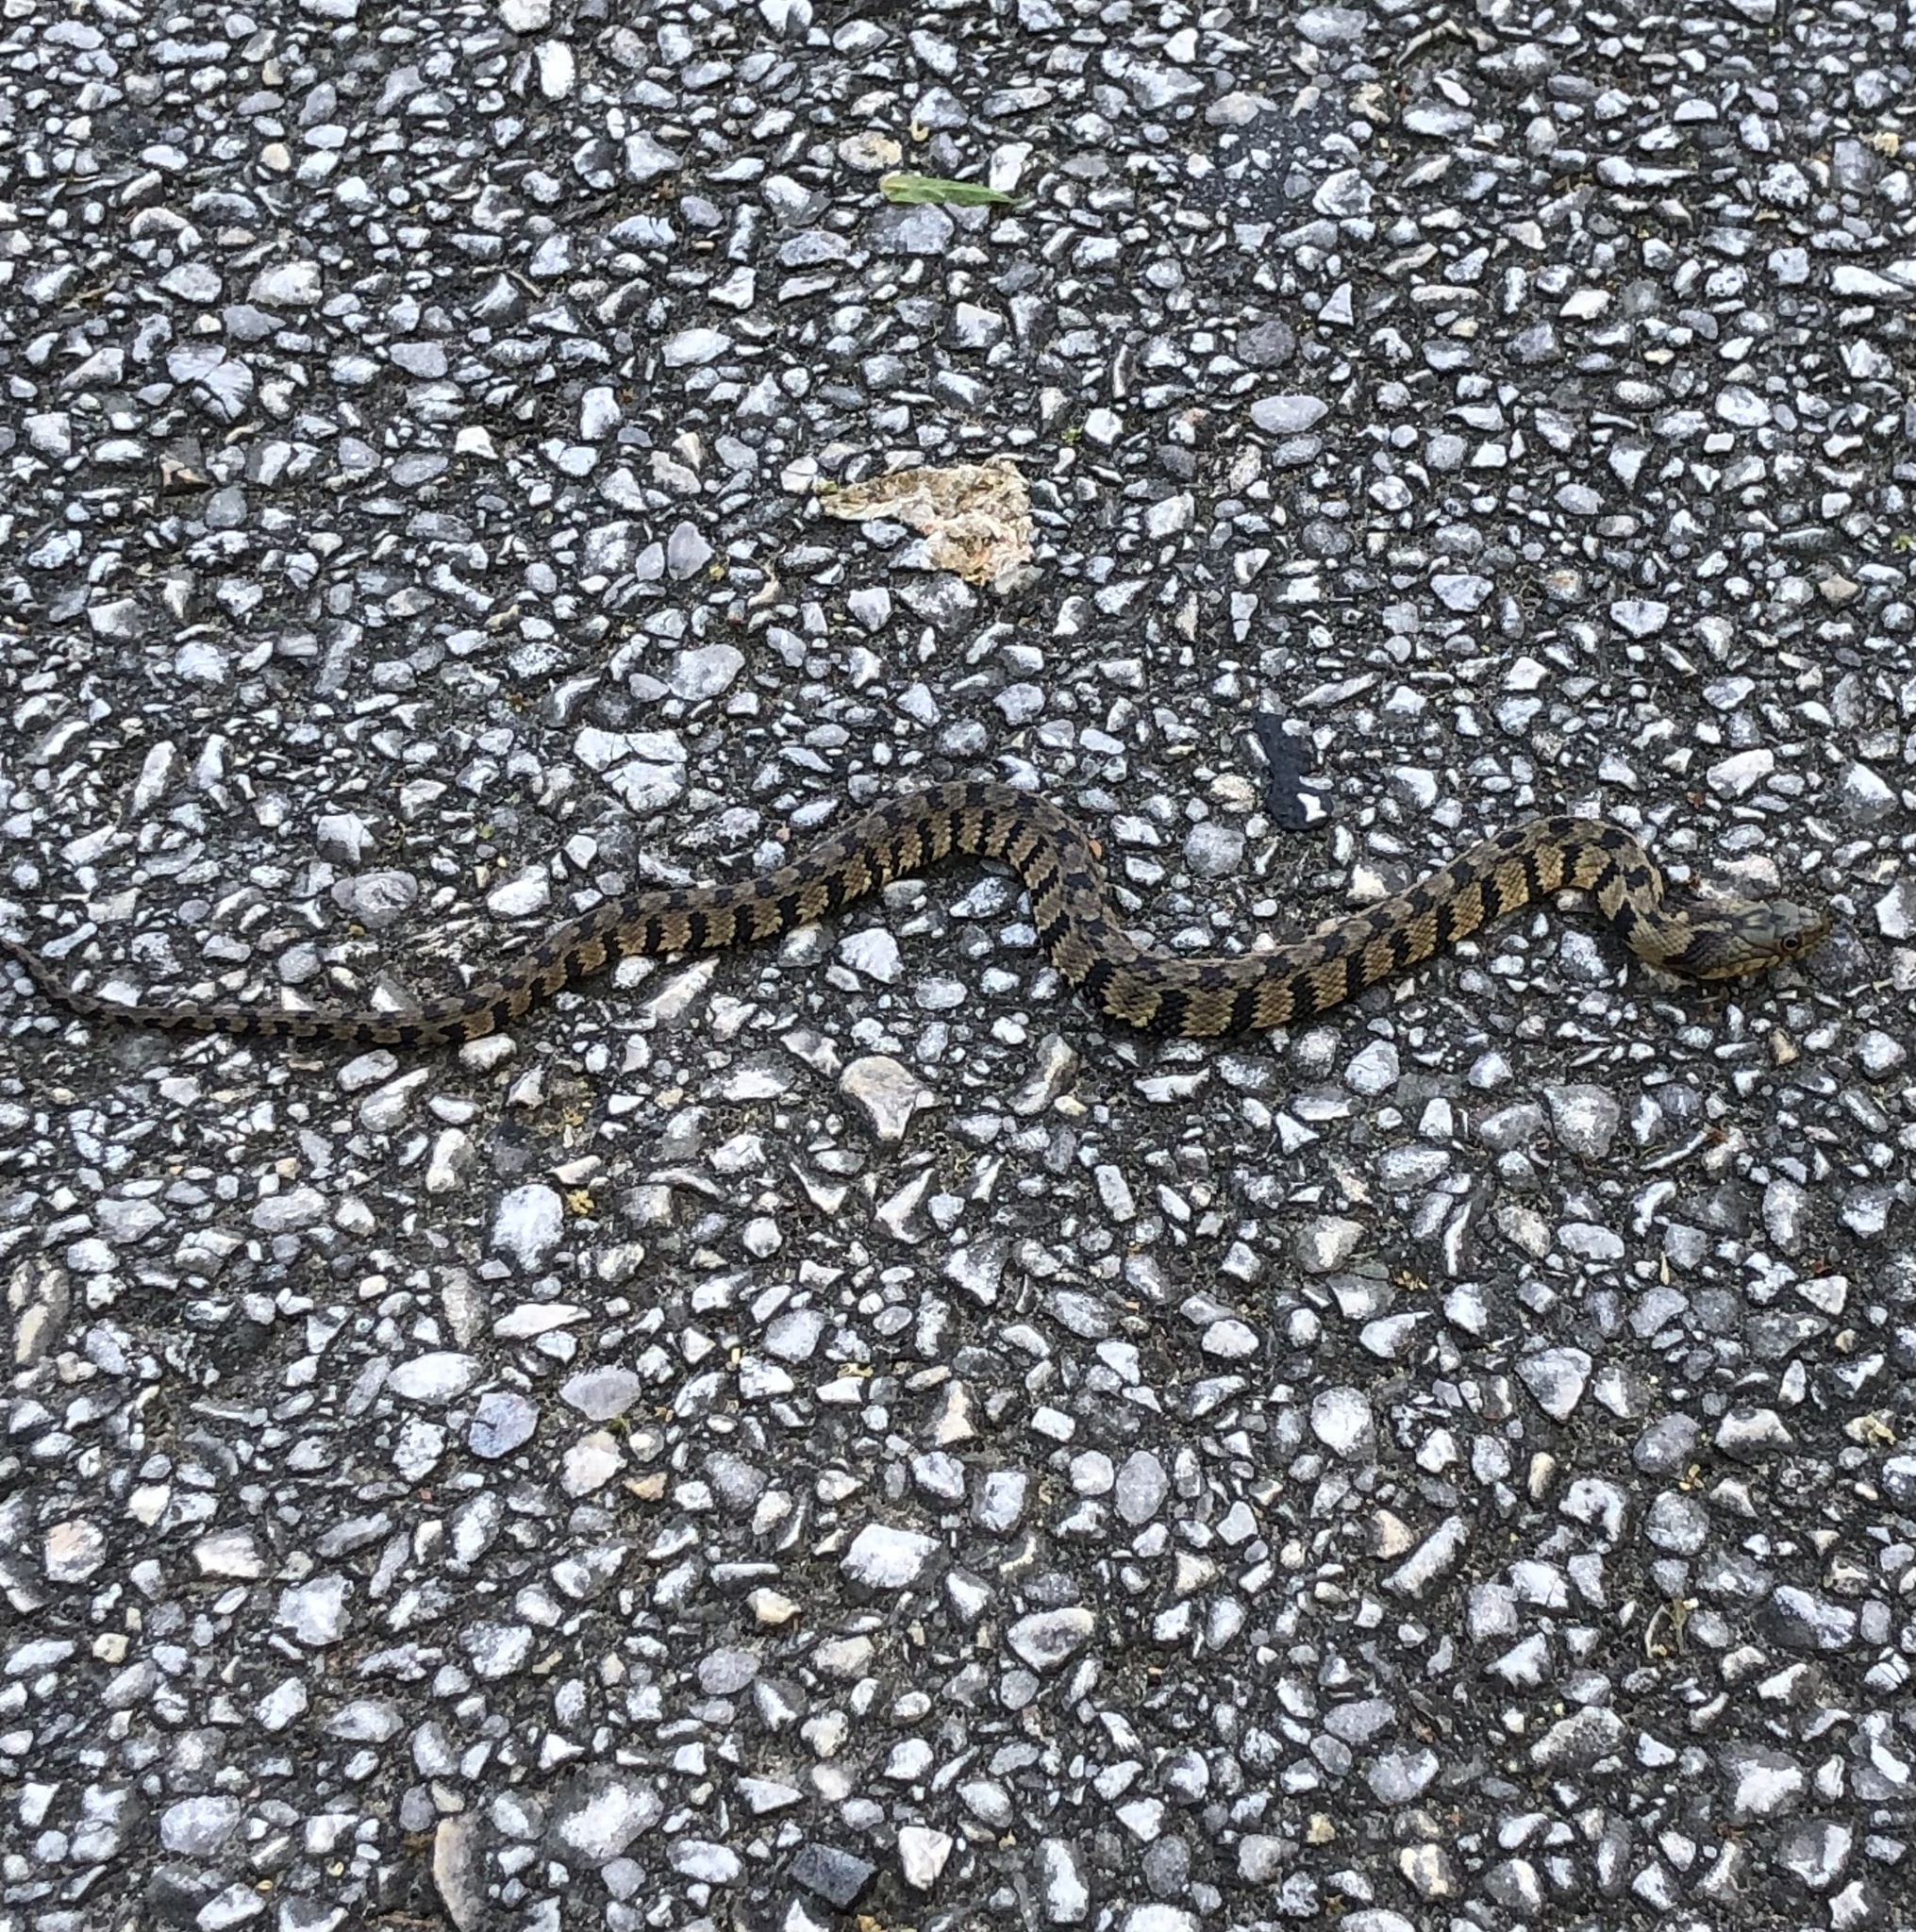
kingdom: Animalia
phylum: Chordata
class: Squamata
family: Colubridae
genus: Nerodia
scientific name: Nerodia rhombifer
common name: Diamondback water snake
